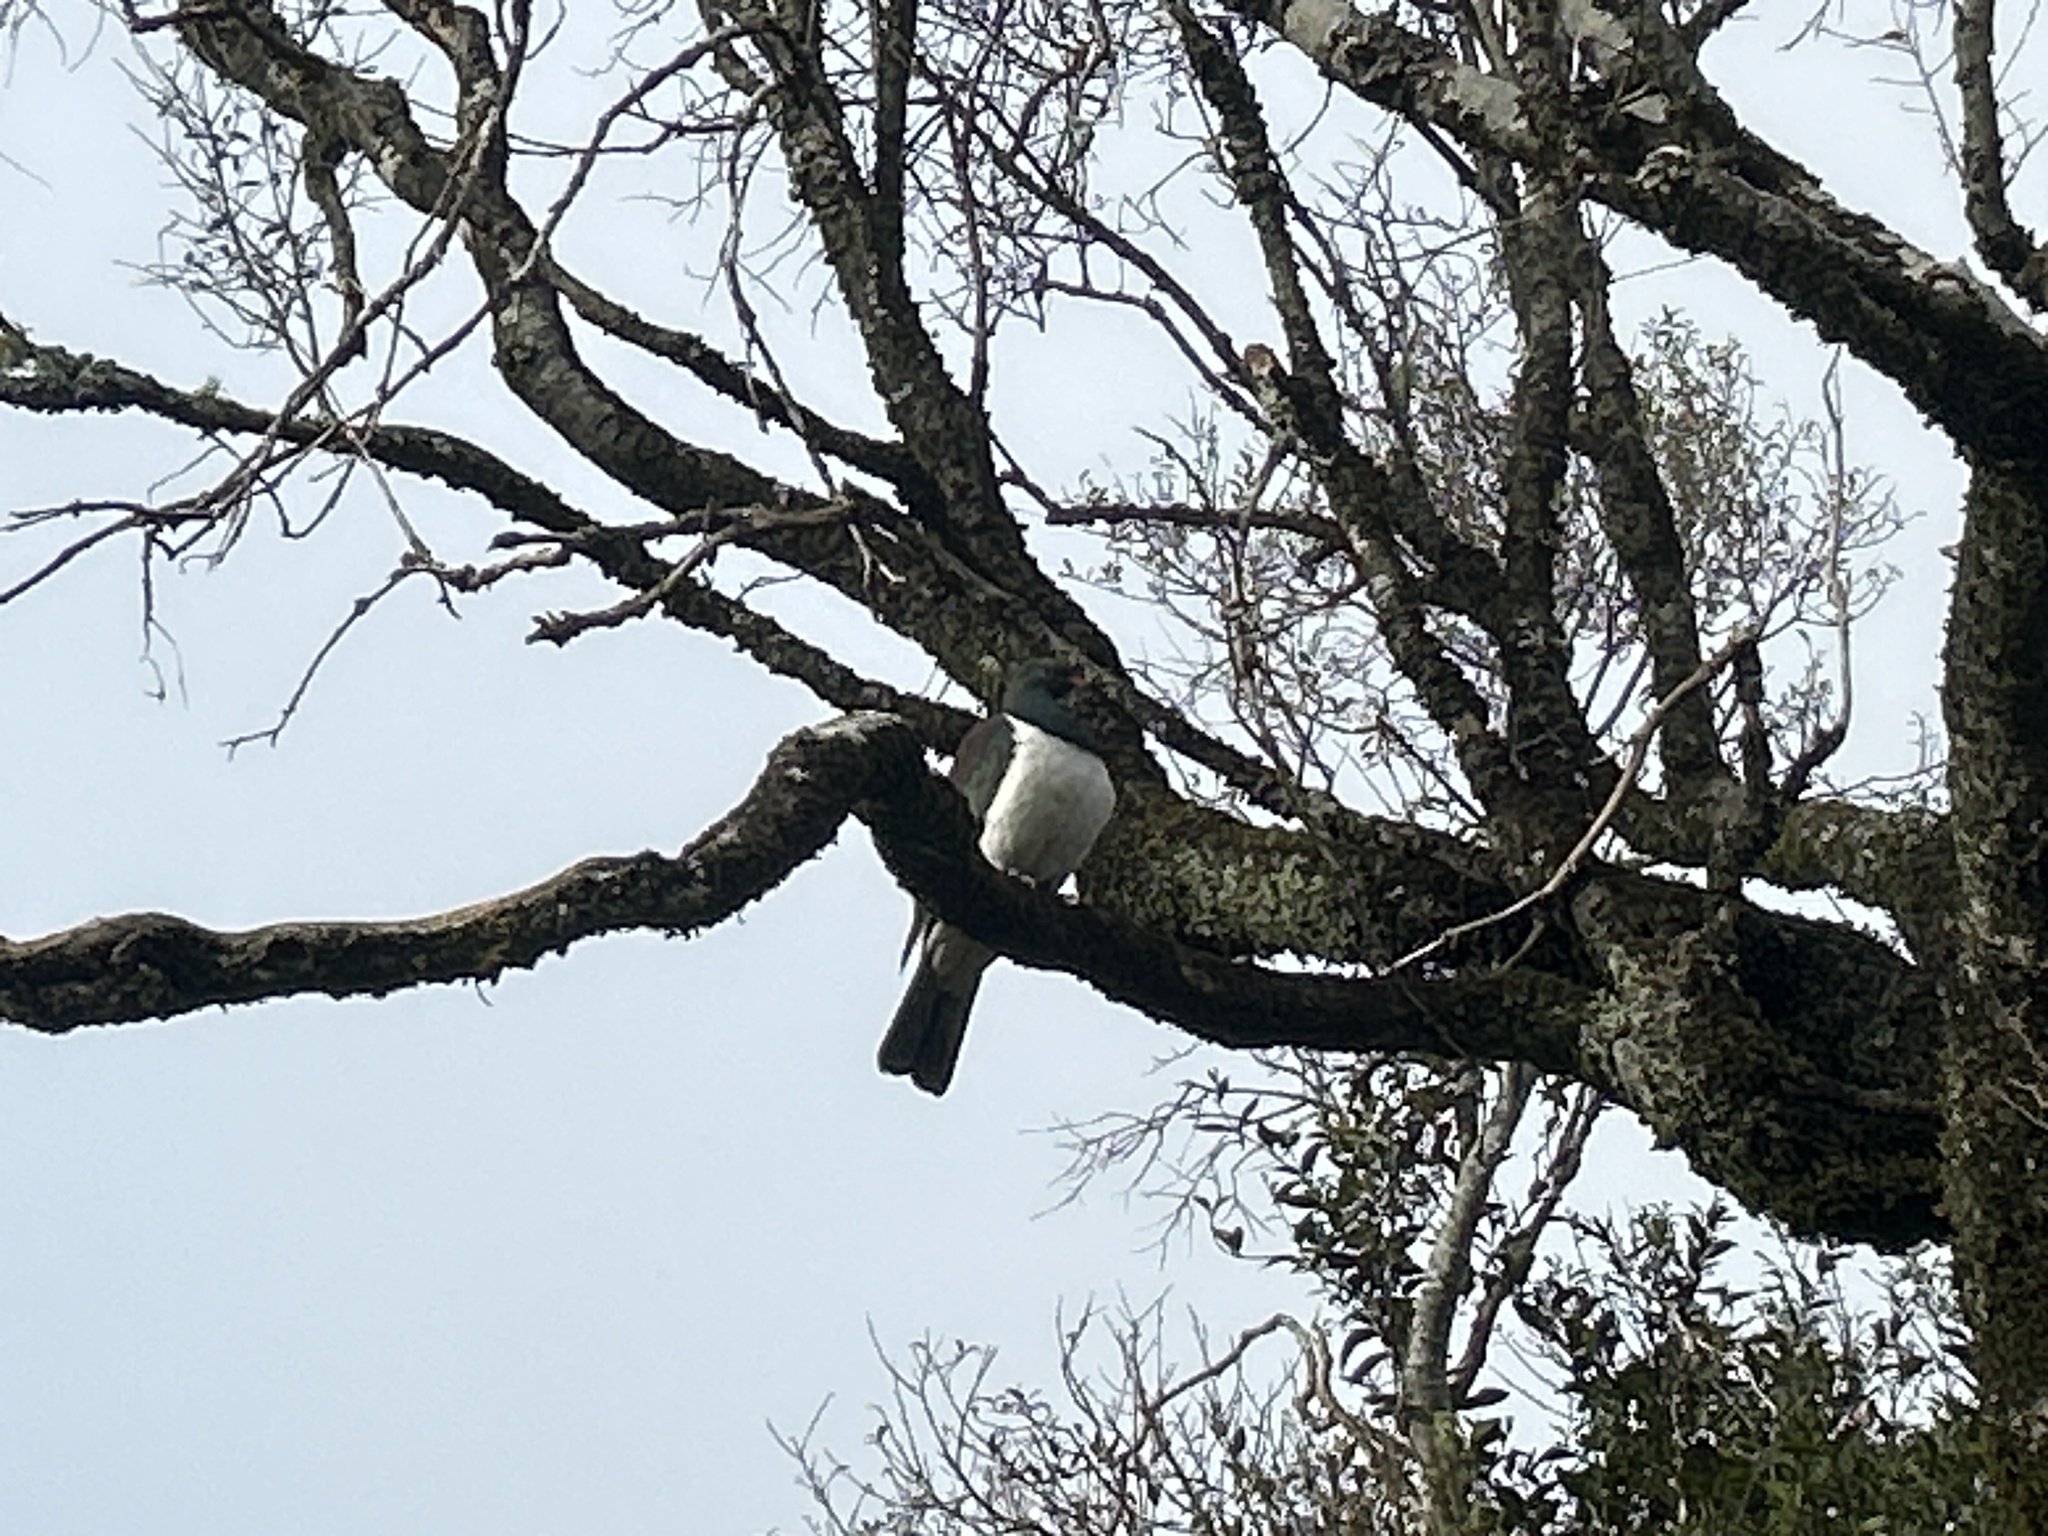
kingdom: Animalia
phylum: Chordata
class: Aves
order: Columbiformes
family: Columbidae
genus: Hemiphaga
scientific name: Hemiphaga novaeseelandiae
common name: New zealand pigeon
